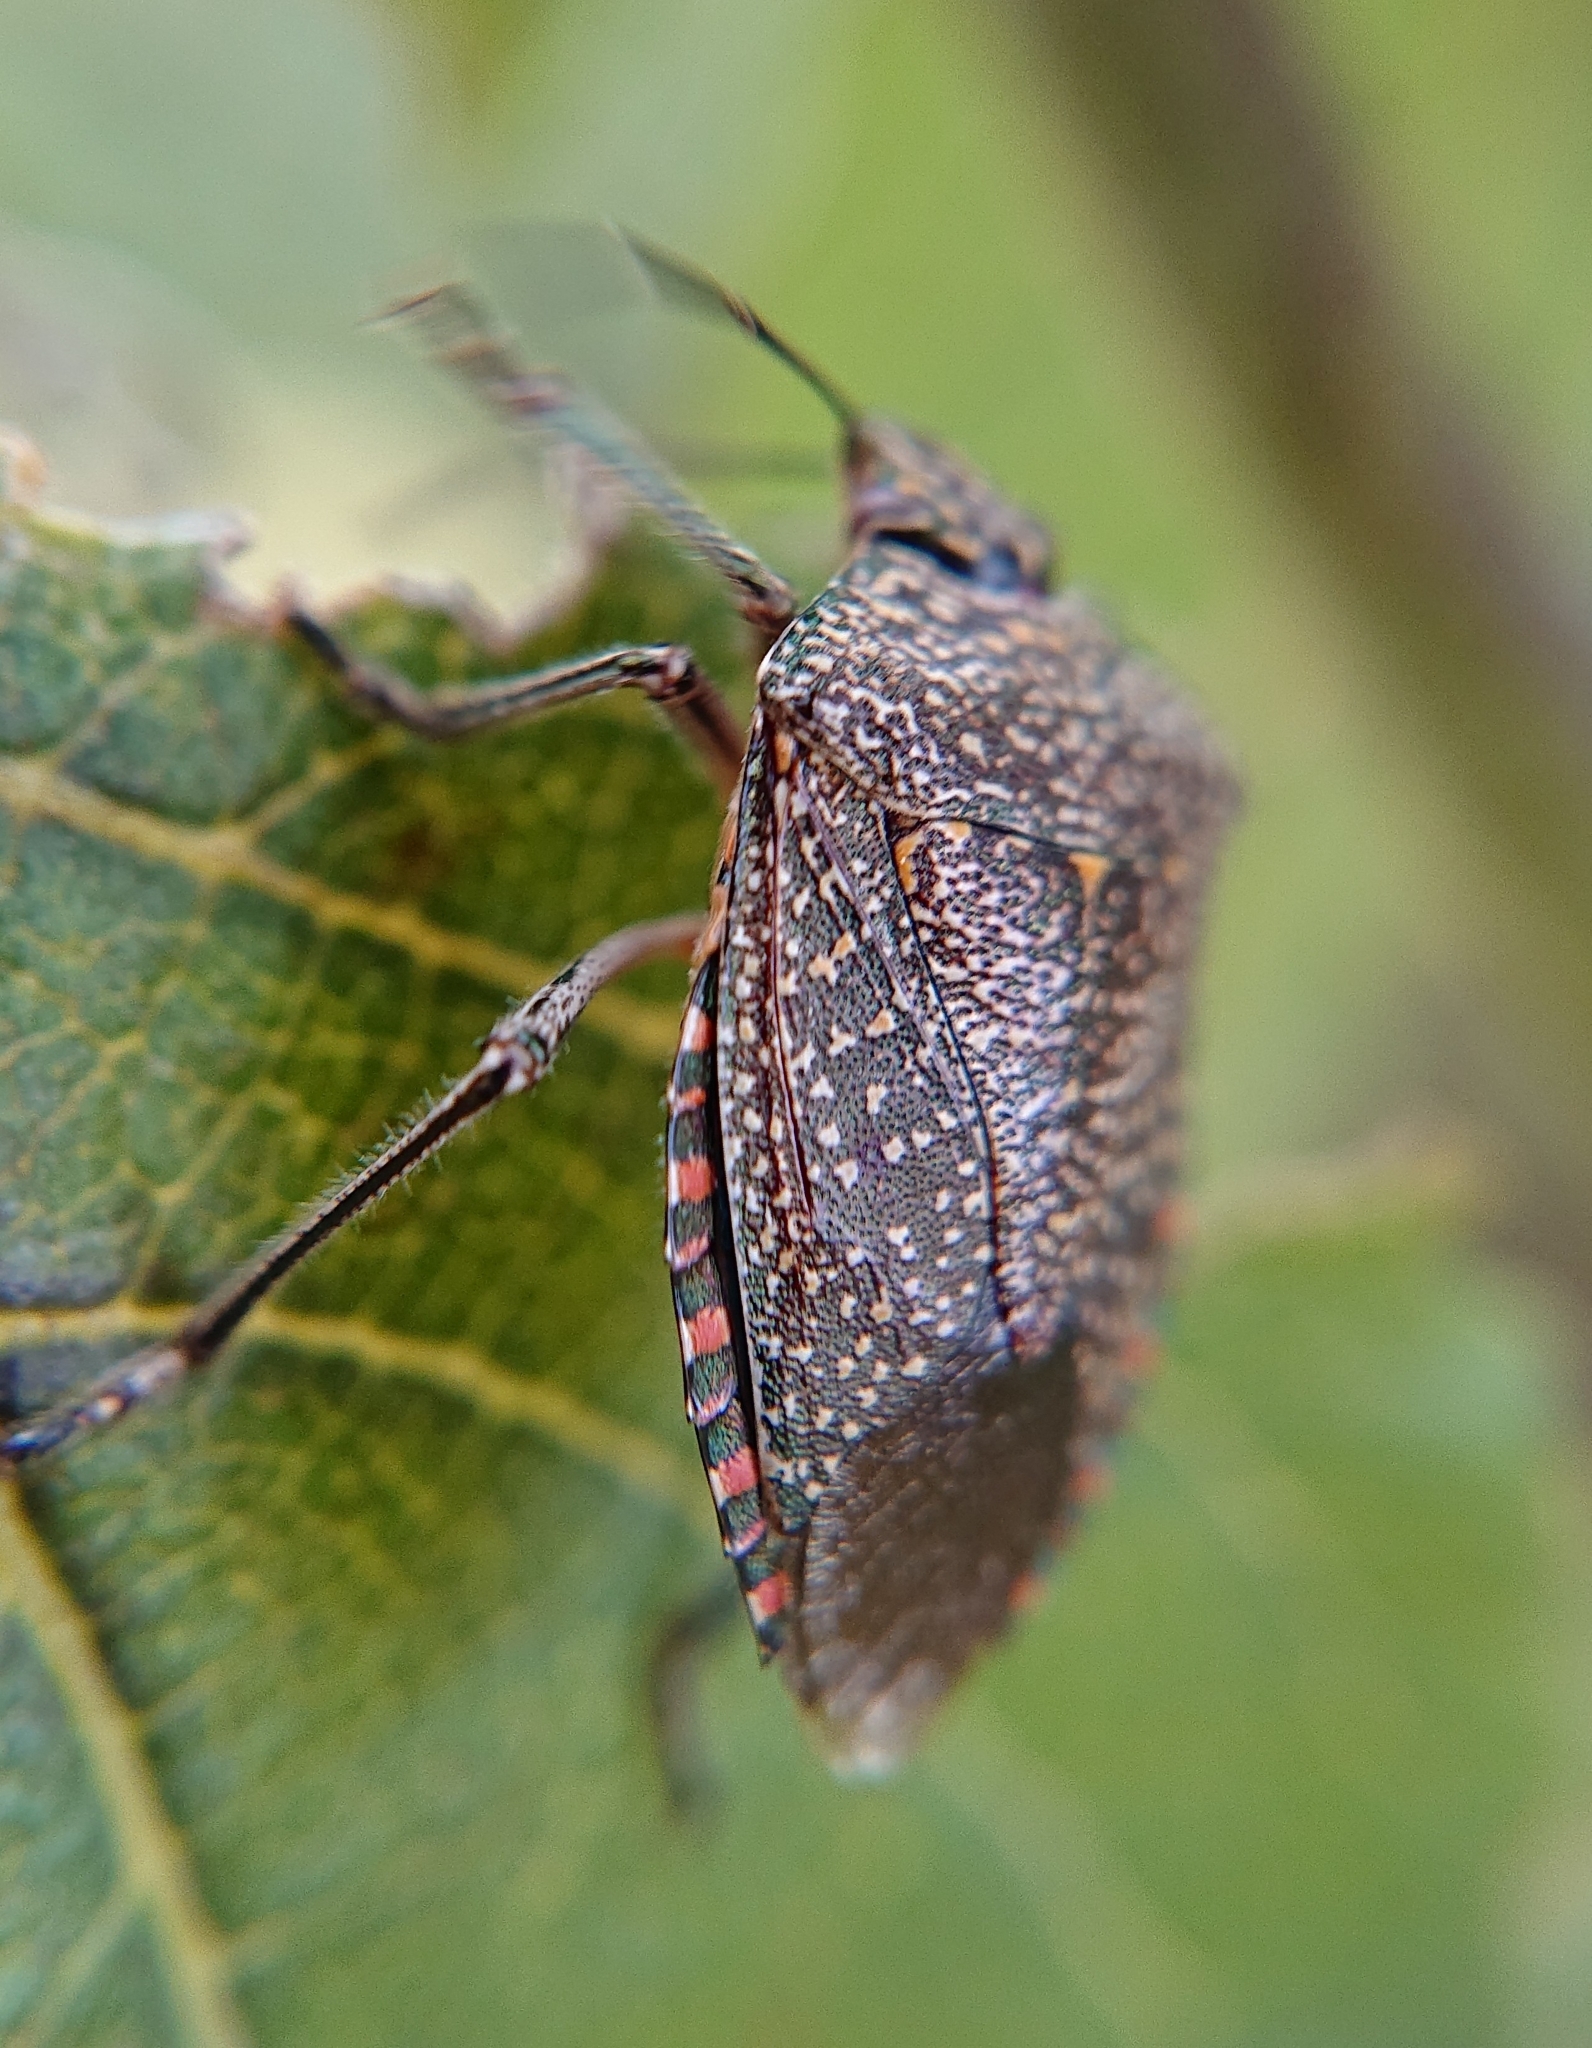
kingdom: Animalia
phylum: Arthropoda
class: Insecta
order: Hemiptera
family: Pentatomidae
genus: Pellaea
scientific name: Pellaea stictica
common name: Stink bug
